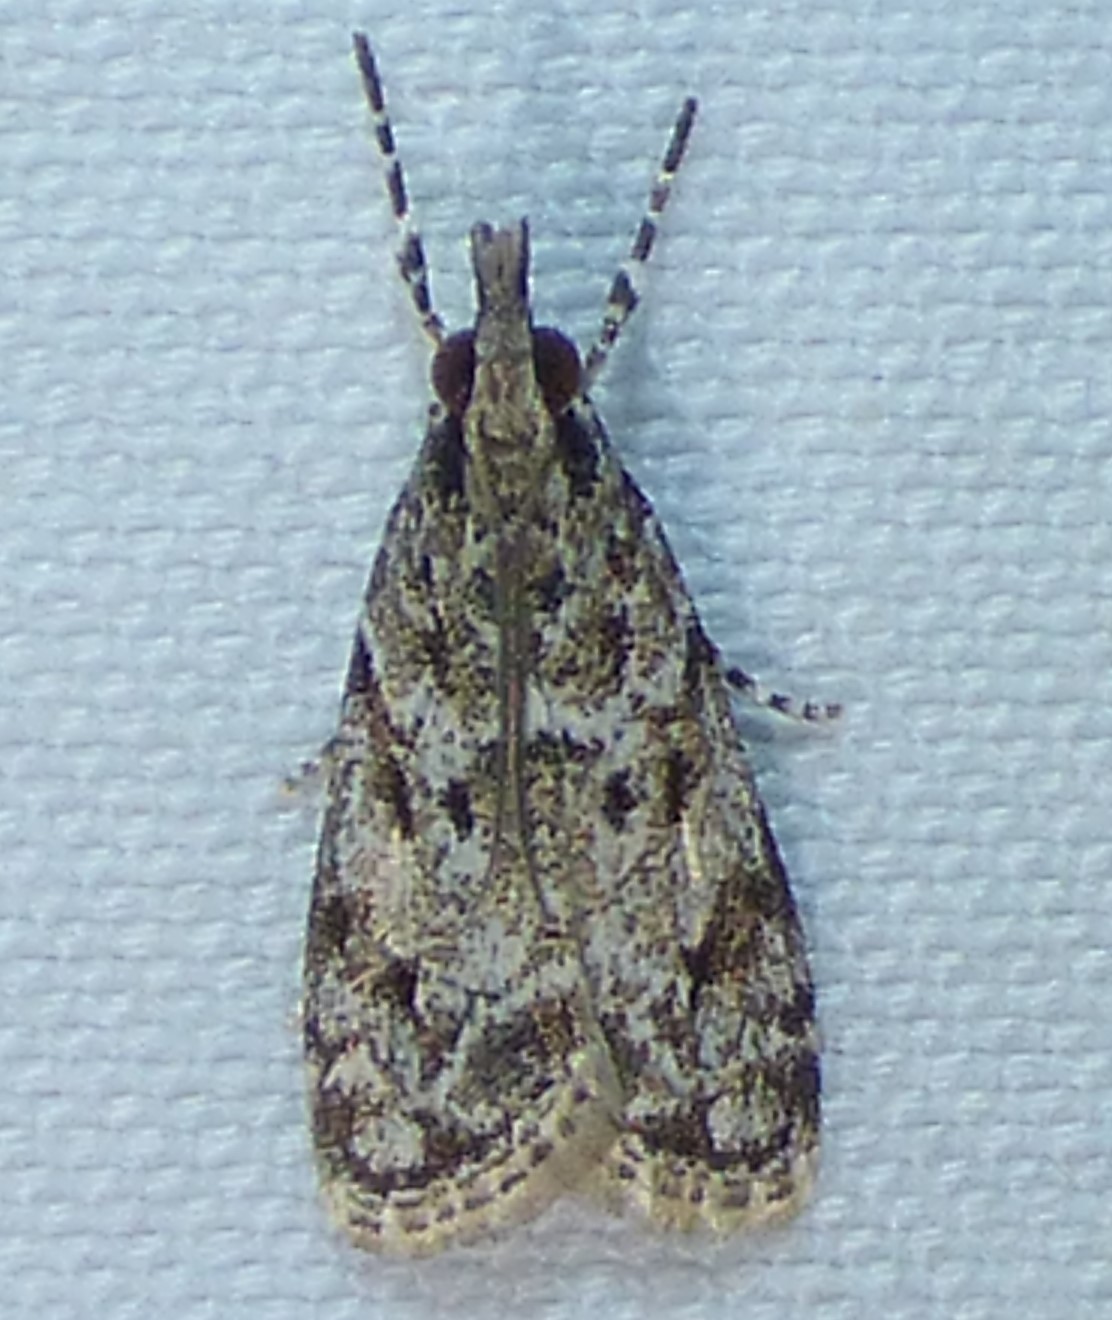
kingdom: Animalia
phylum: Arthropoda
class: Insecta
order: Lepidoptera
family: Crambidae
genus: Eudonia
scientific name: Eudonia heterosalis
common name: Mcdunnough's eudonia
